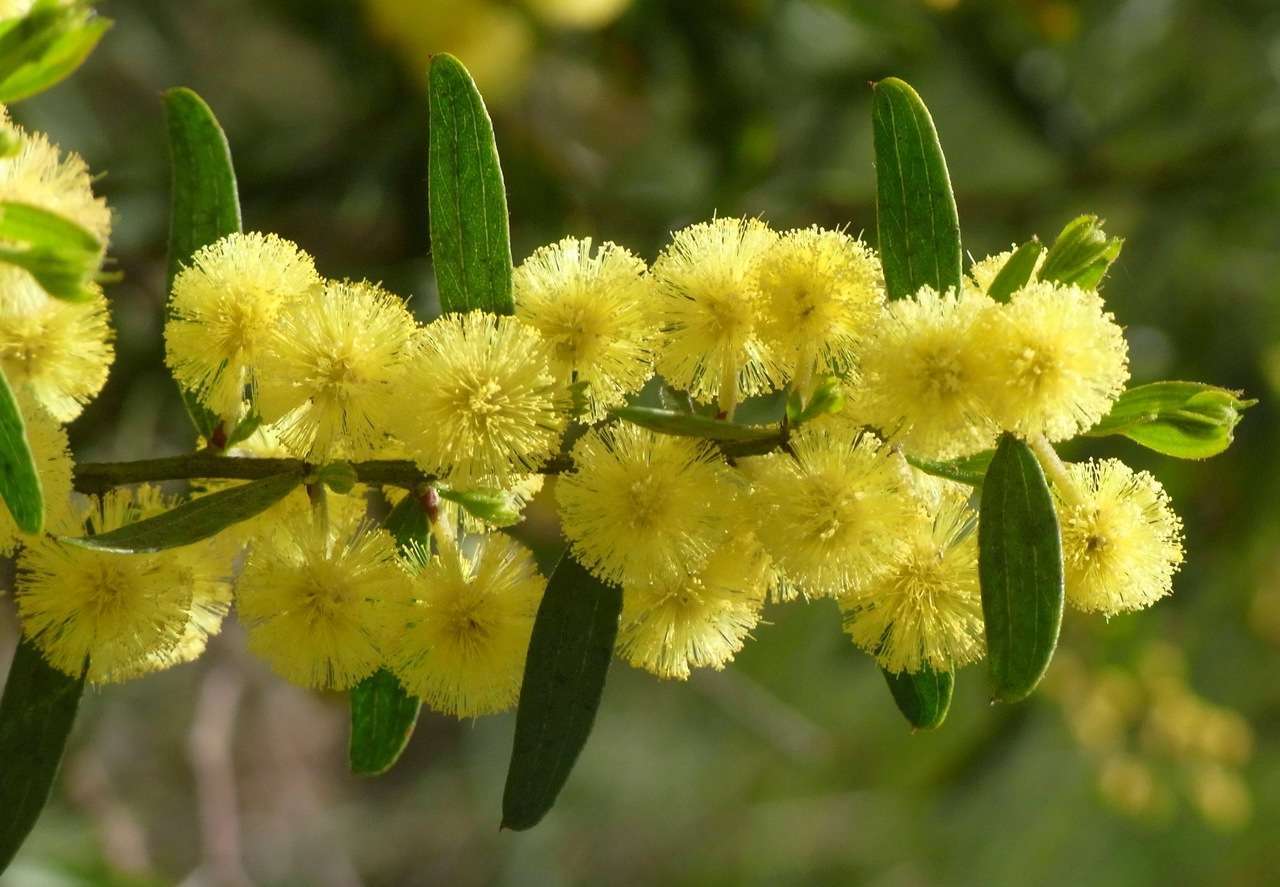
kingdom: Plantae
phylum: Tracheophyta
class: Magnoliopsida
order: Fabales
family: Fabaceae
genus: Acacia
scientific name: Acacia rostriformis
